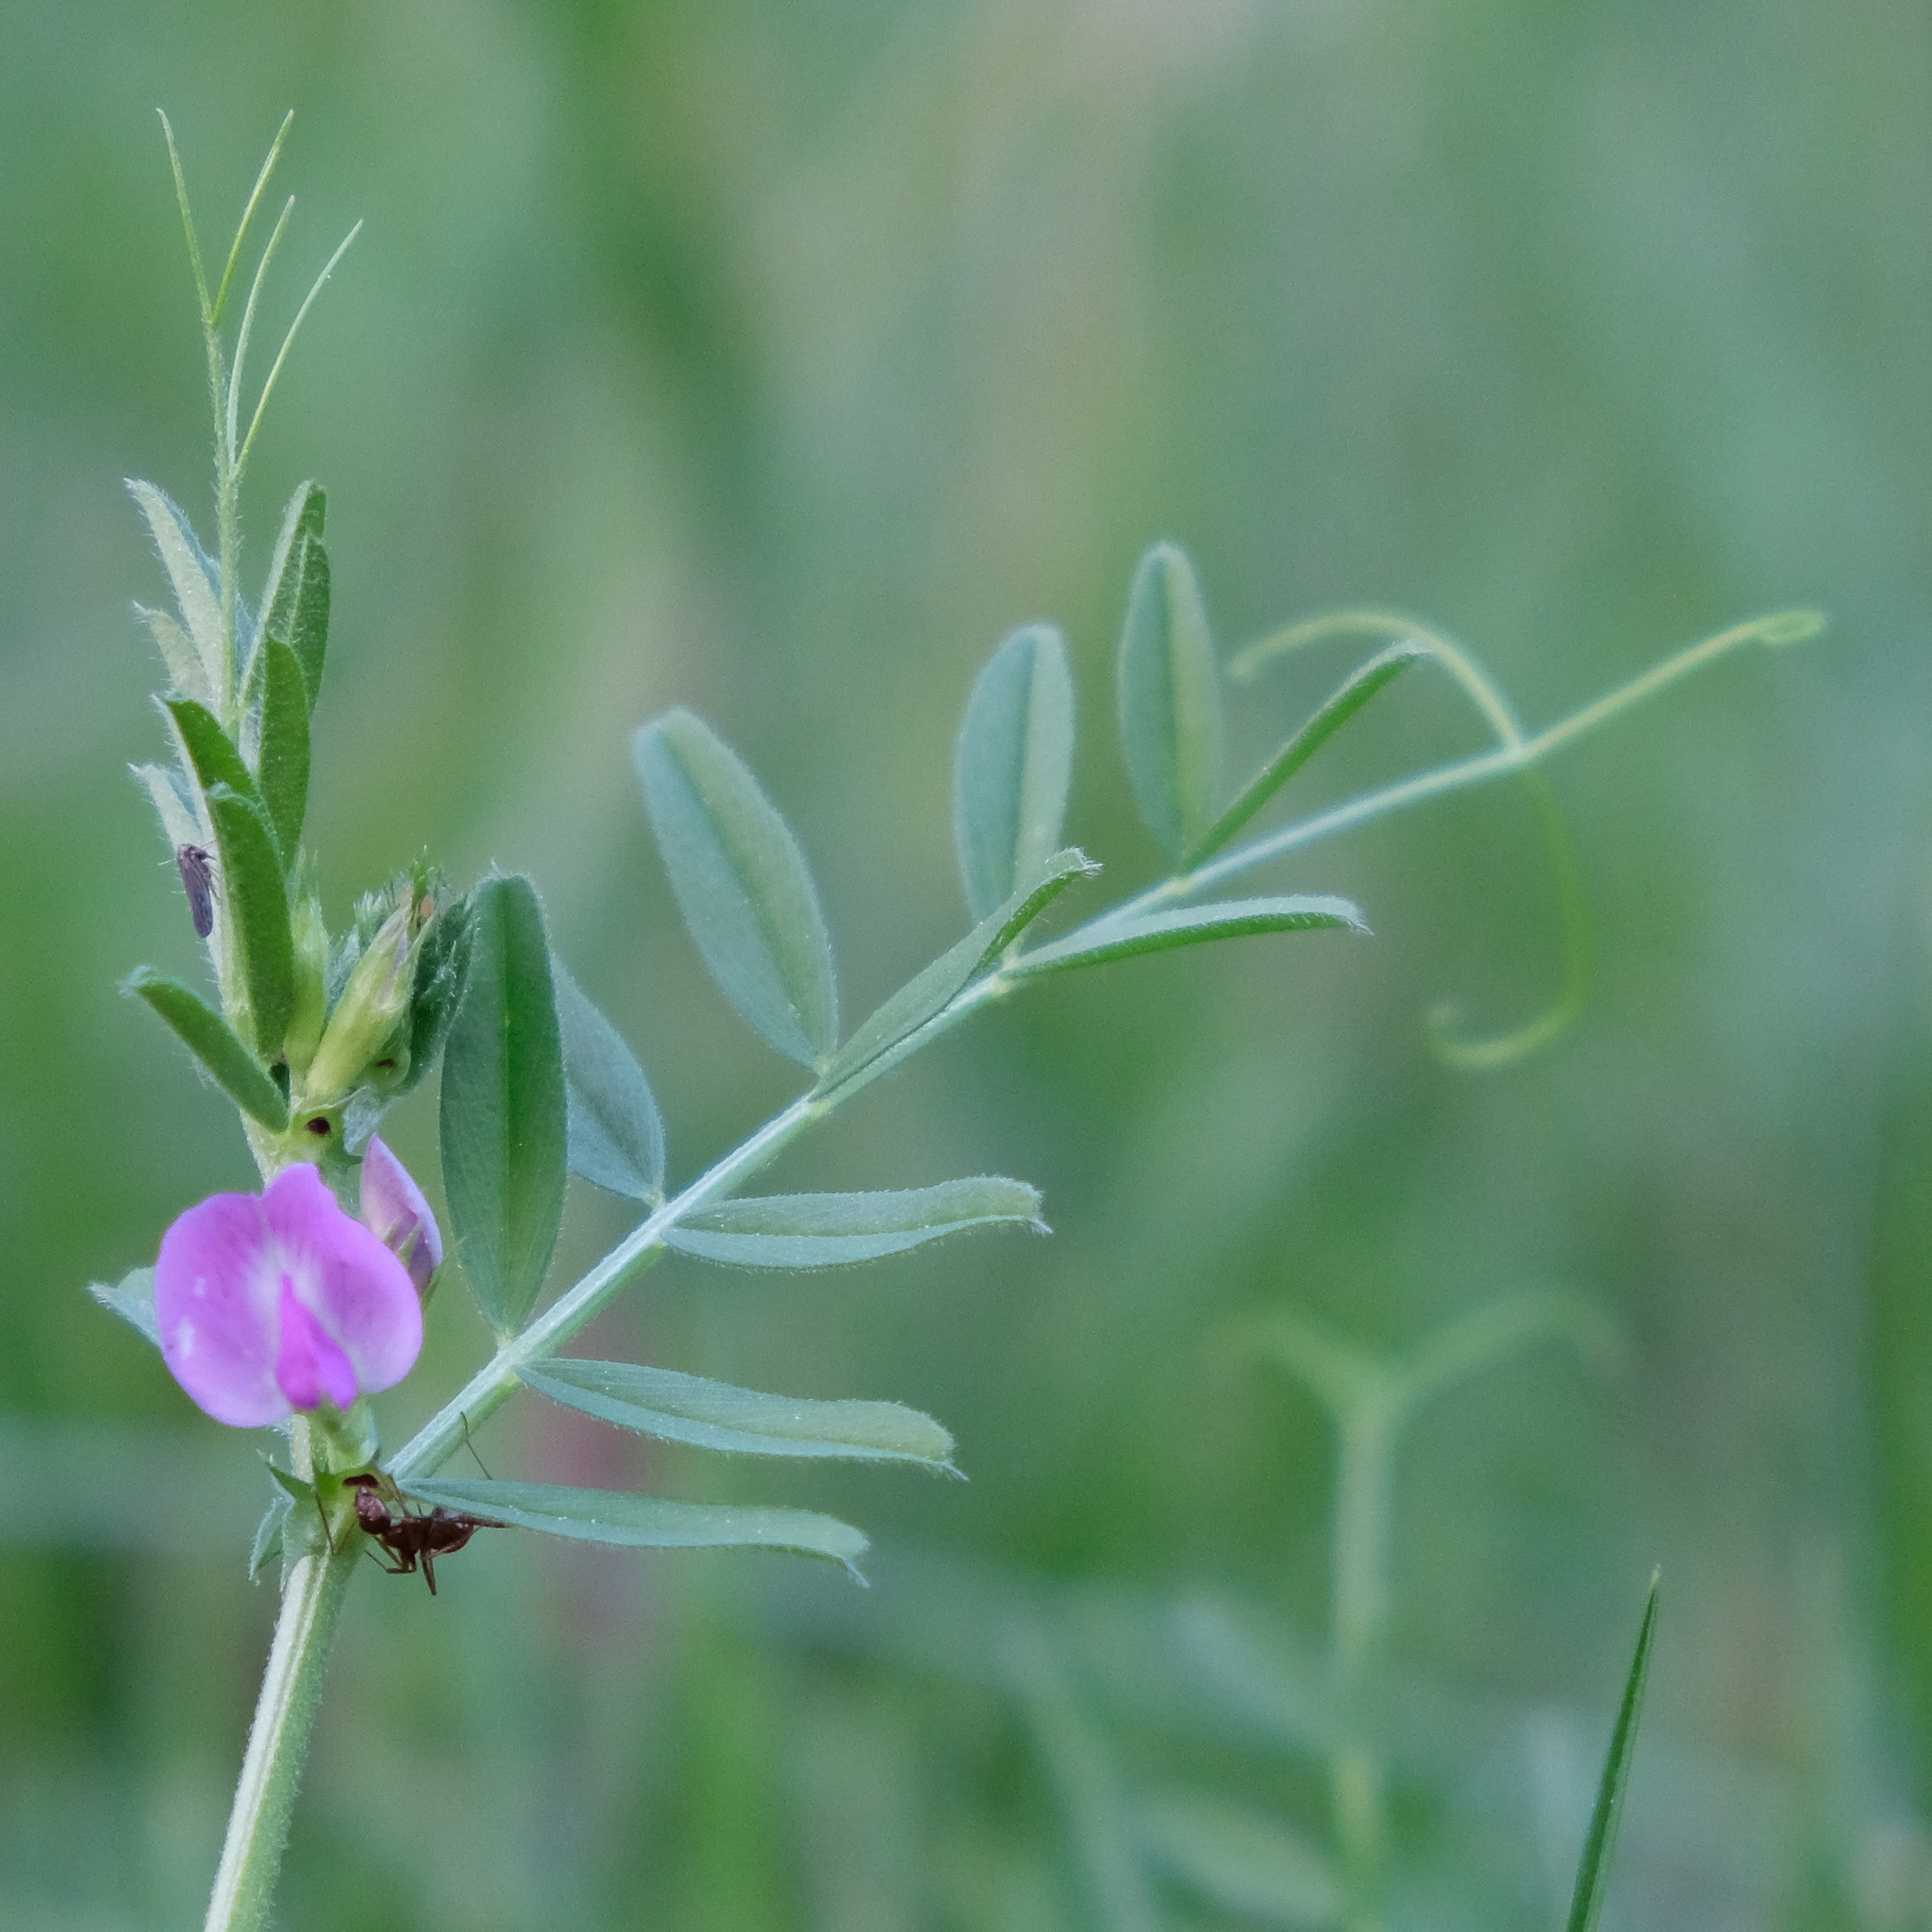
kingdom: Plantae
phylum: Tracheophyta
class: Magnoliopsida
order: Fabales
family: Fabaceae
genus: Vicia
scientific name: Vicia sativa
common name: Garden vetch
